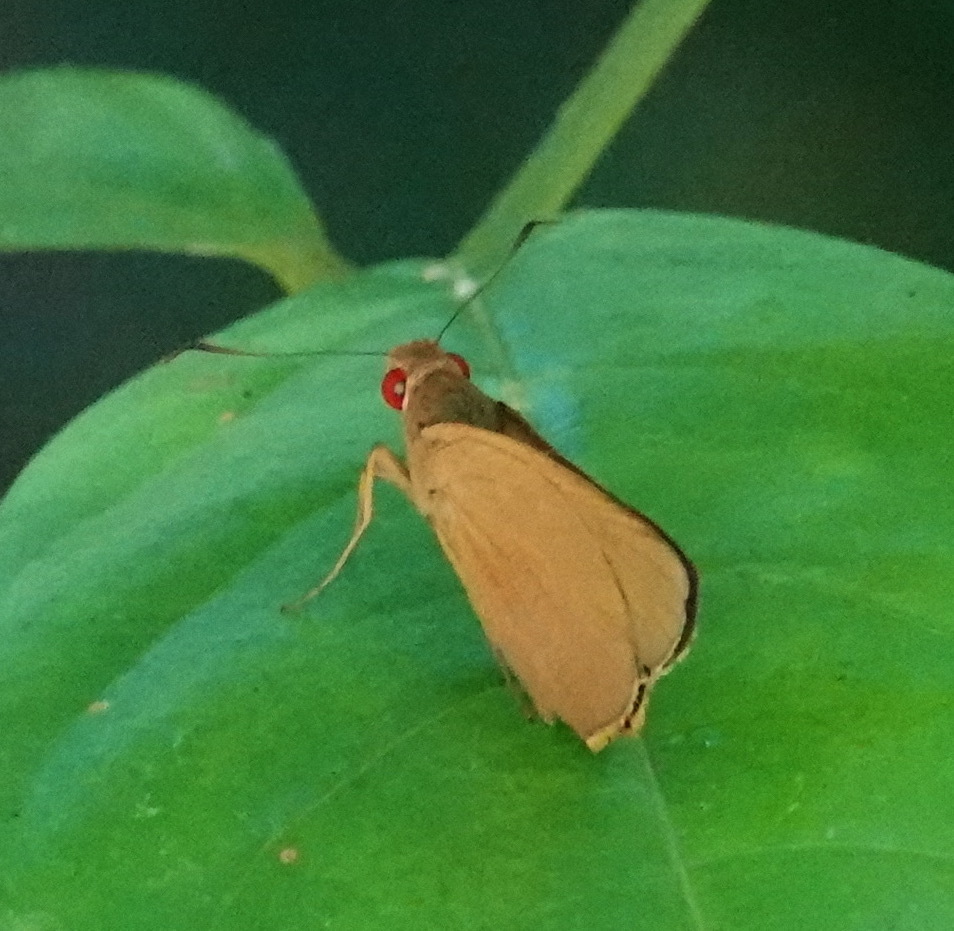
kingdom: Animalia
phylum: Arthropoda
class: Insecta
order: Lepidoptera
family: Hesperiidae
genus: Matapa
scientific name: Matapa aria
